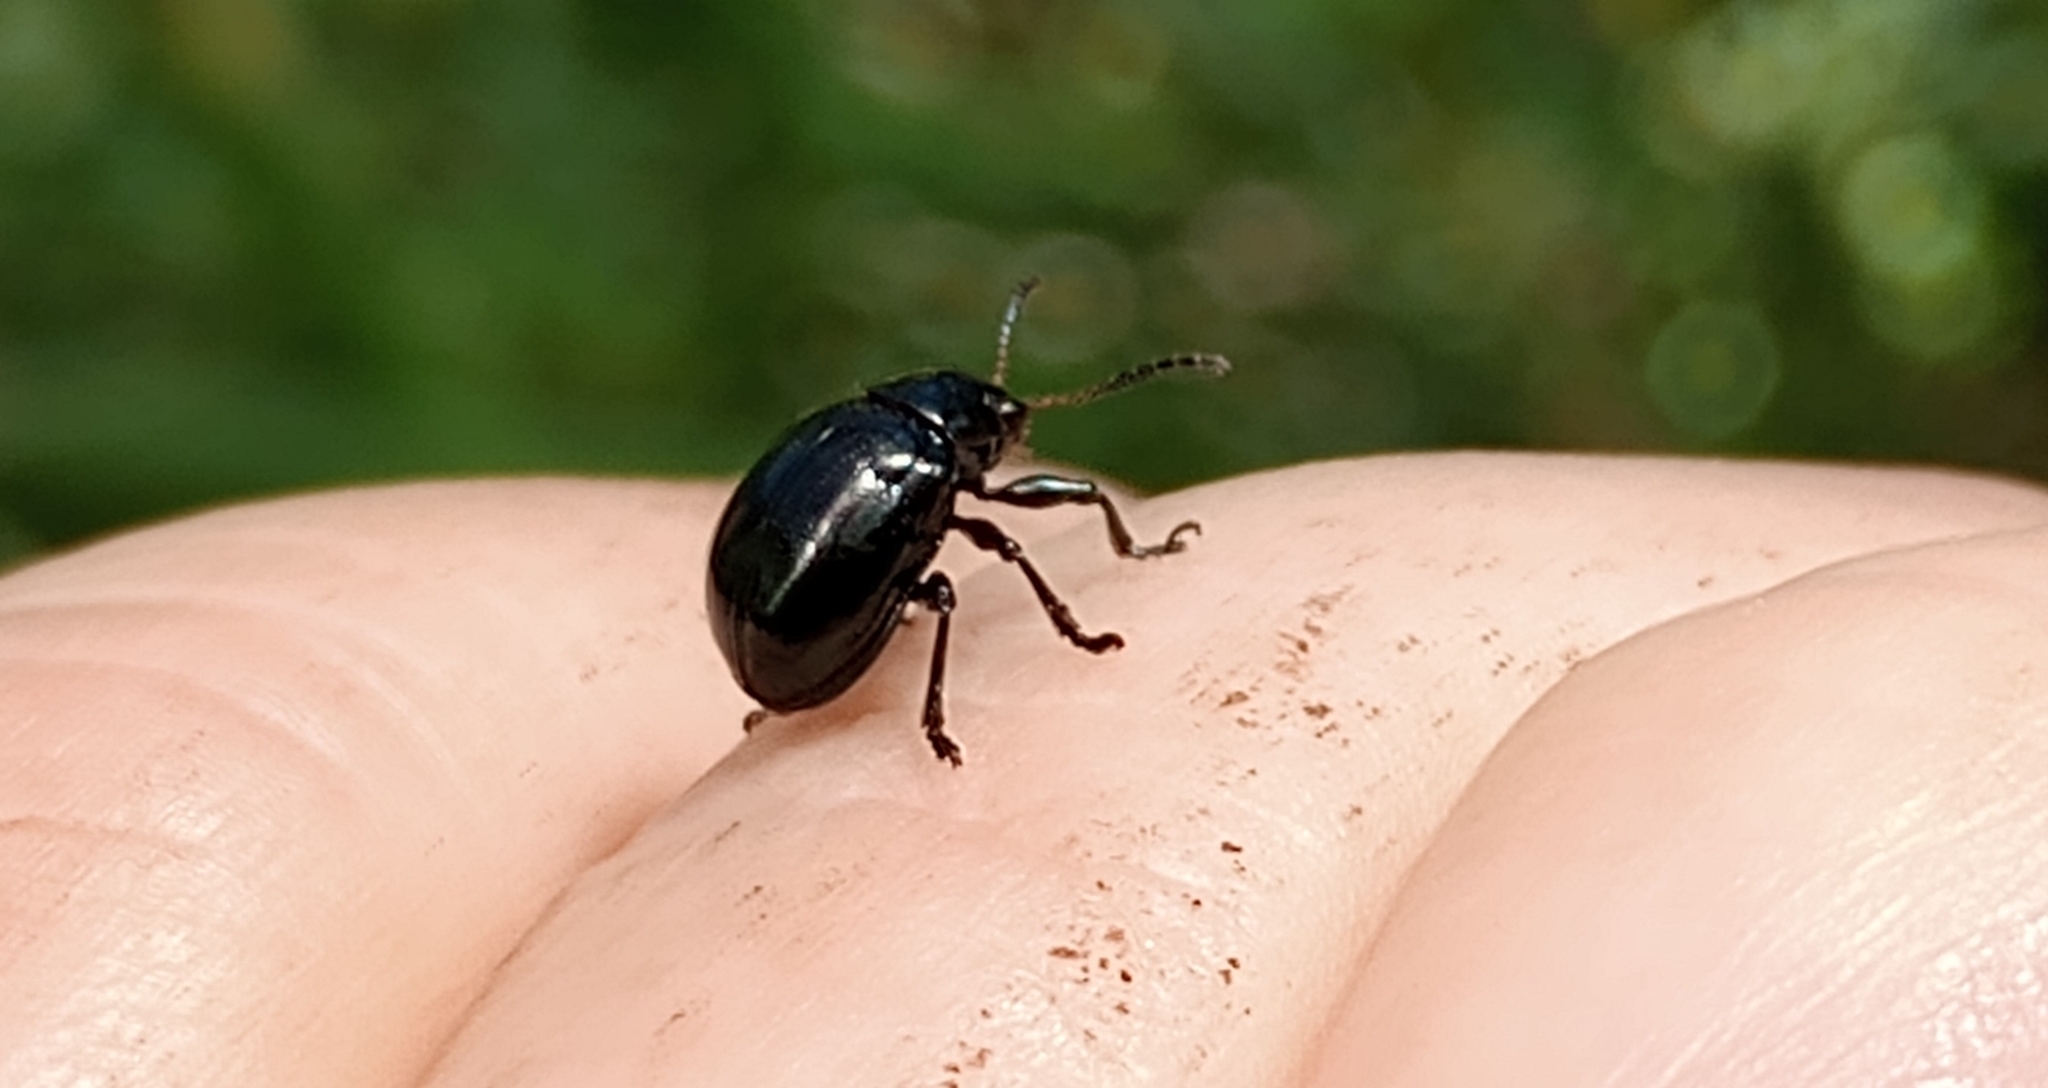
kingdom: Animalia
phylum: Arthropoda
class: Insecta
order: Coleoptera
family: Chrysomelidae
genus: Typophorus
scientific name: Typophorus nigritus
